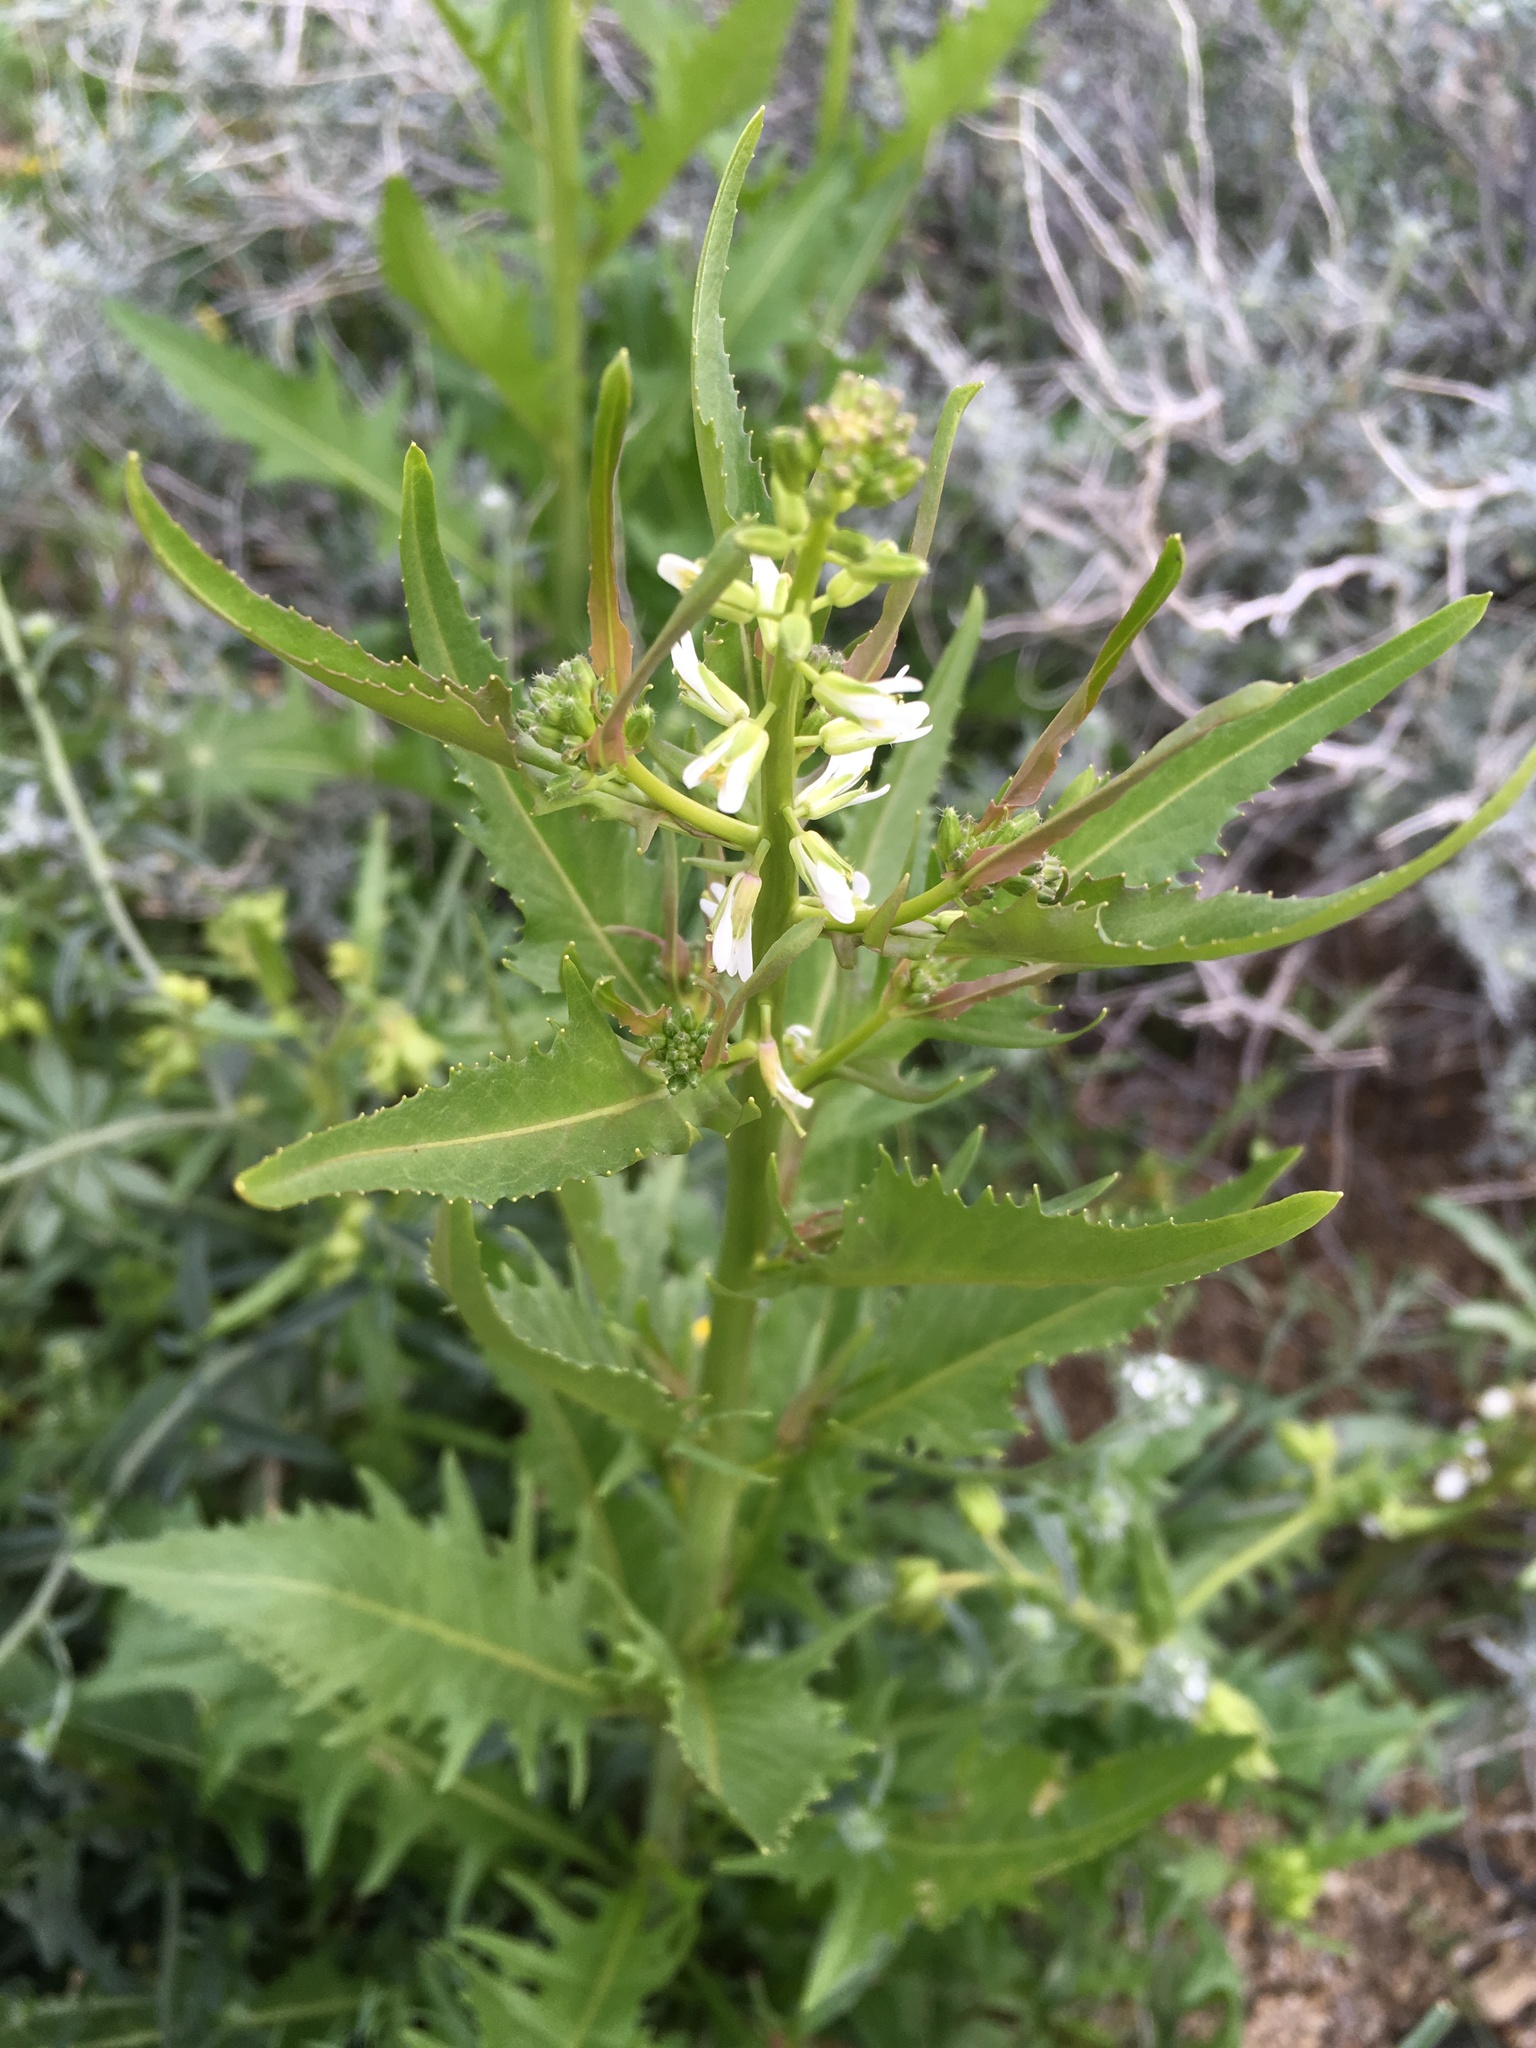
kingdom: Plantae
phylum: Tracheophyta
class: Magnoliopsida
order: Brassicales
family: Brassicaceae
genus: Streptanthus
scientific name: Streptanthus lasiophyllus
